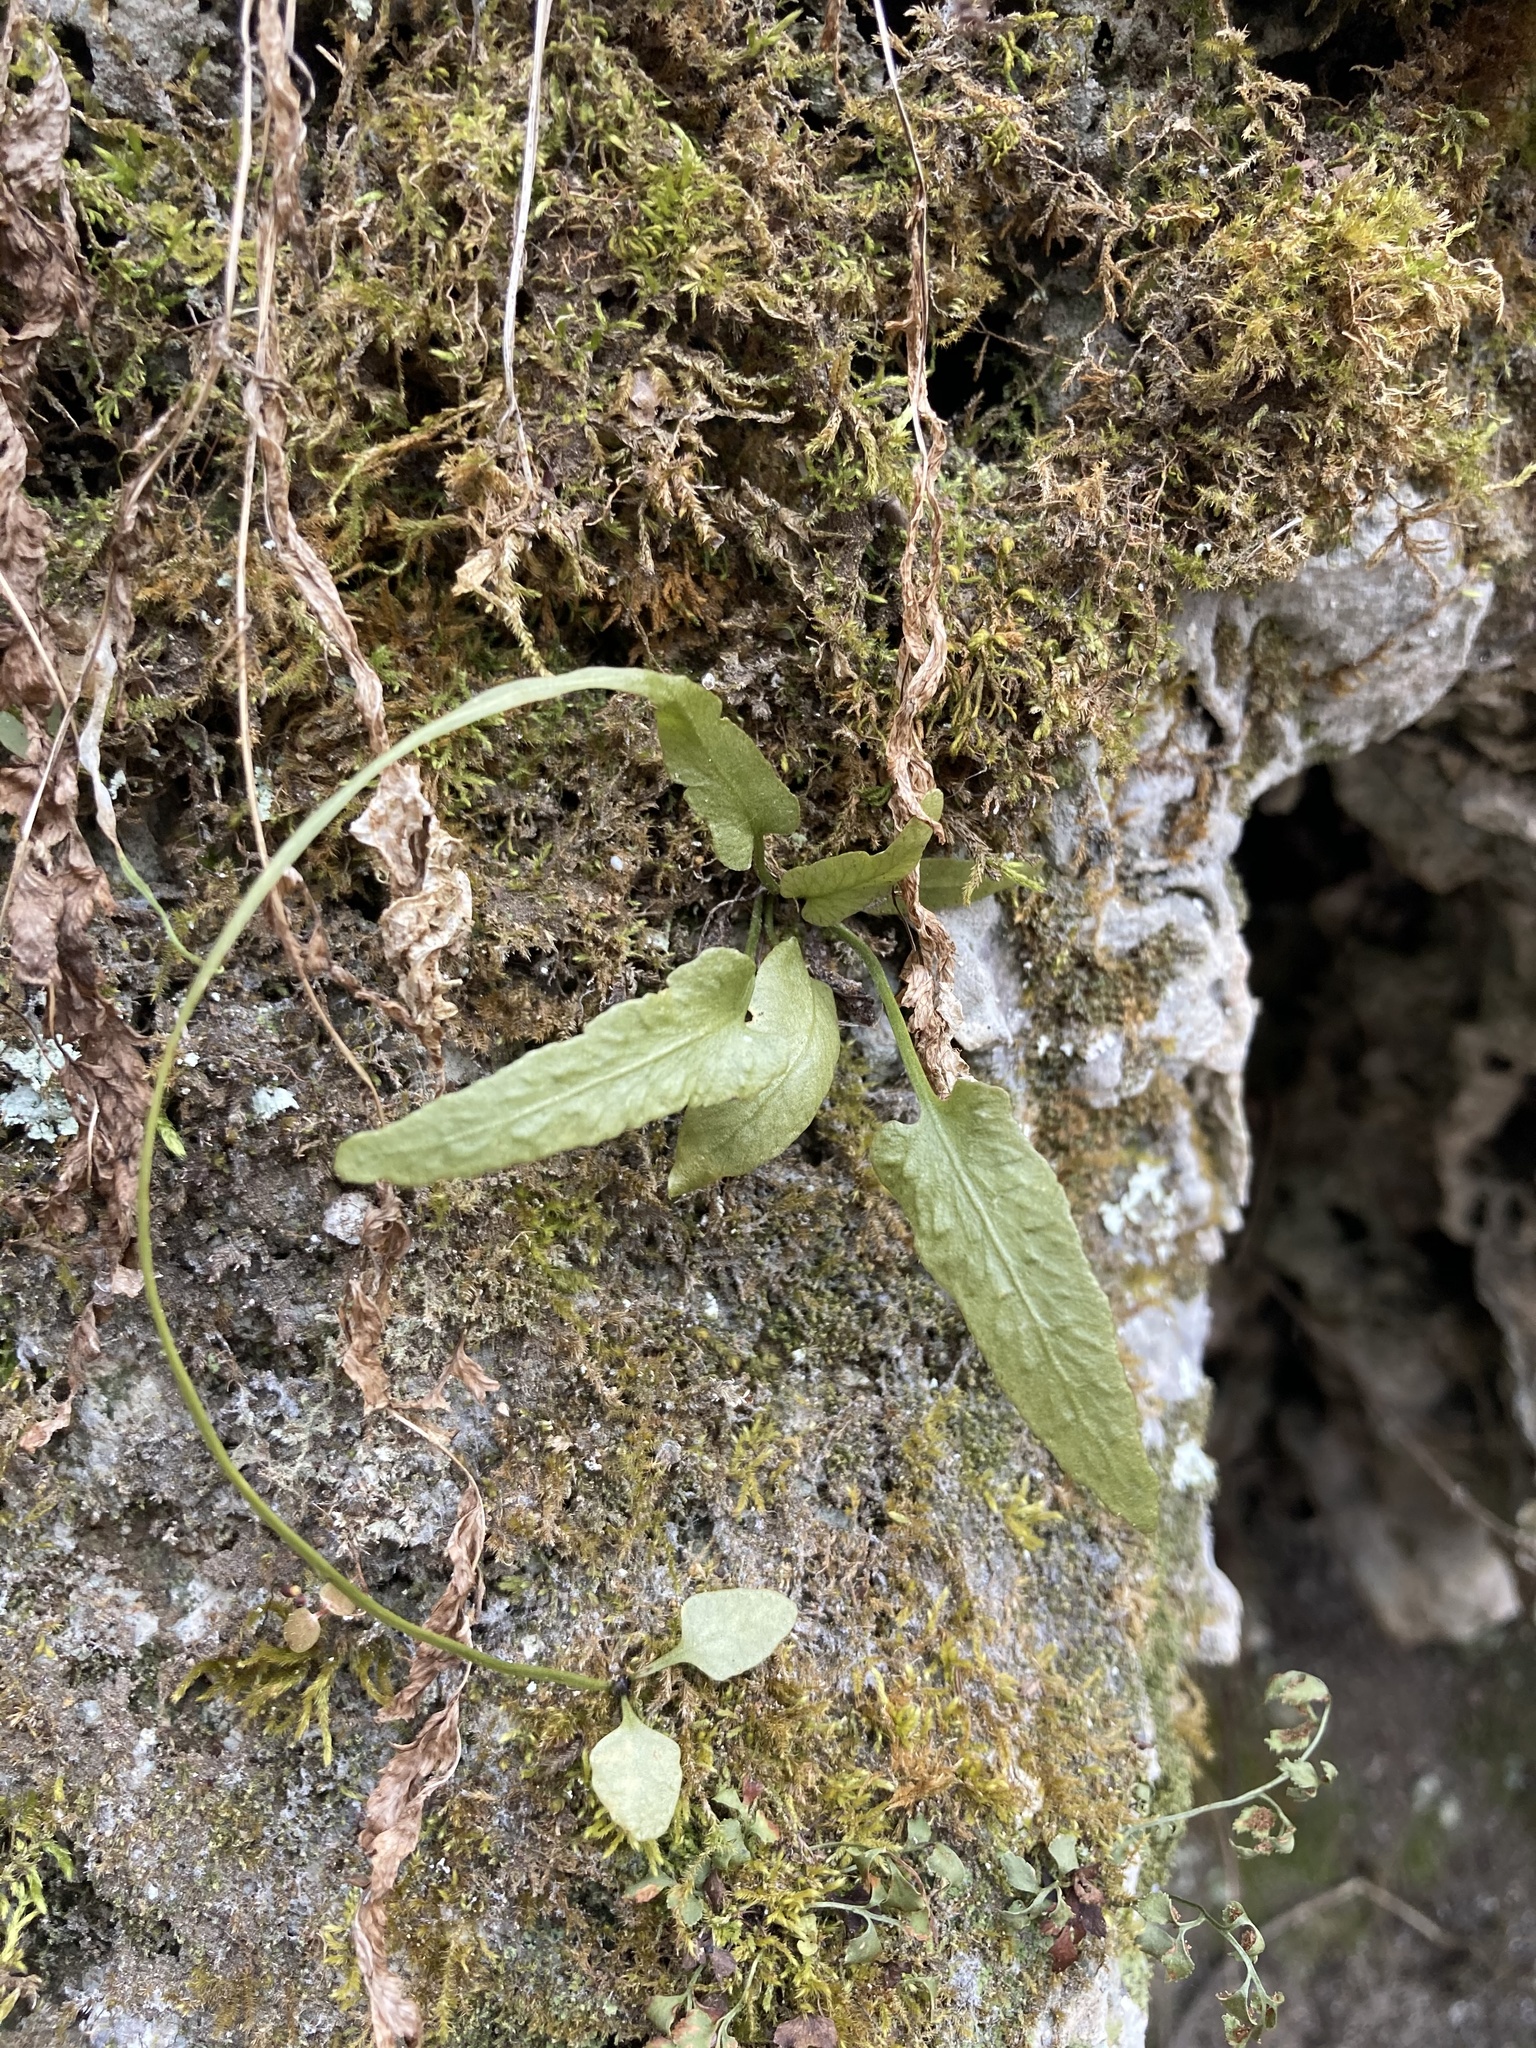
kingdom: Plantae
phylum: Tracheophyta
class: Polypodiopsida
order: Polypodiales
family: Aspleniaceae
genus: Asplenium
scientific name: Asplenium rhizophyllum
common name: Walking fern
